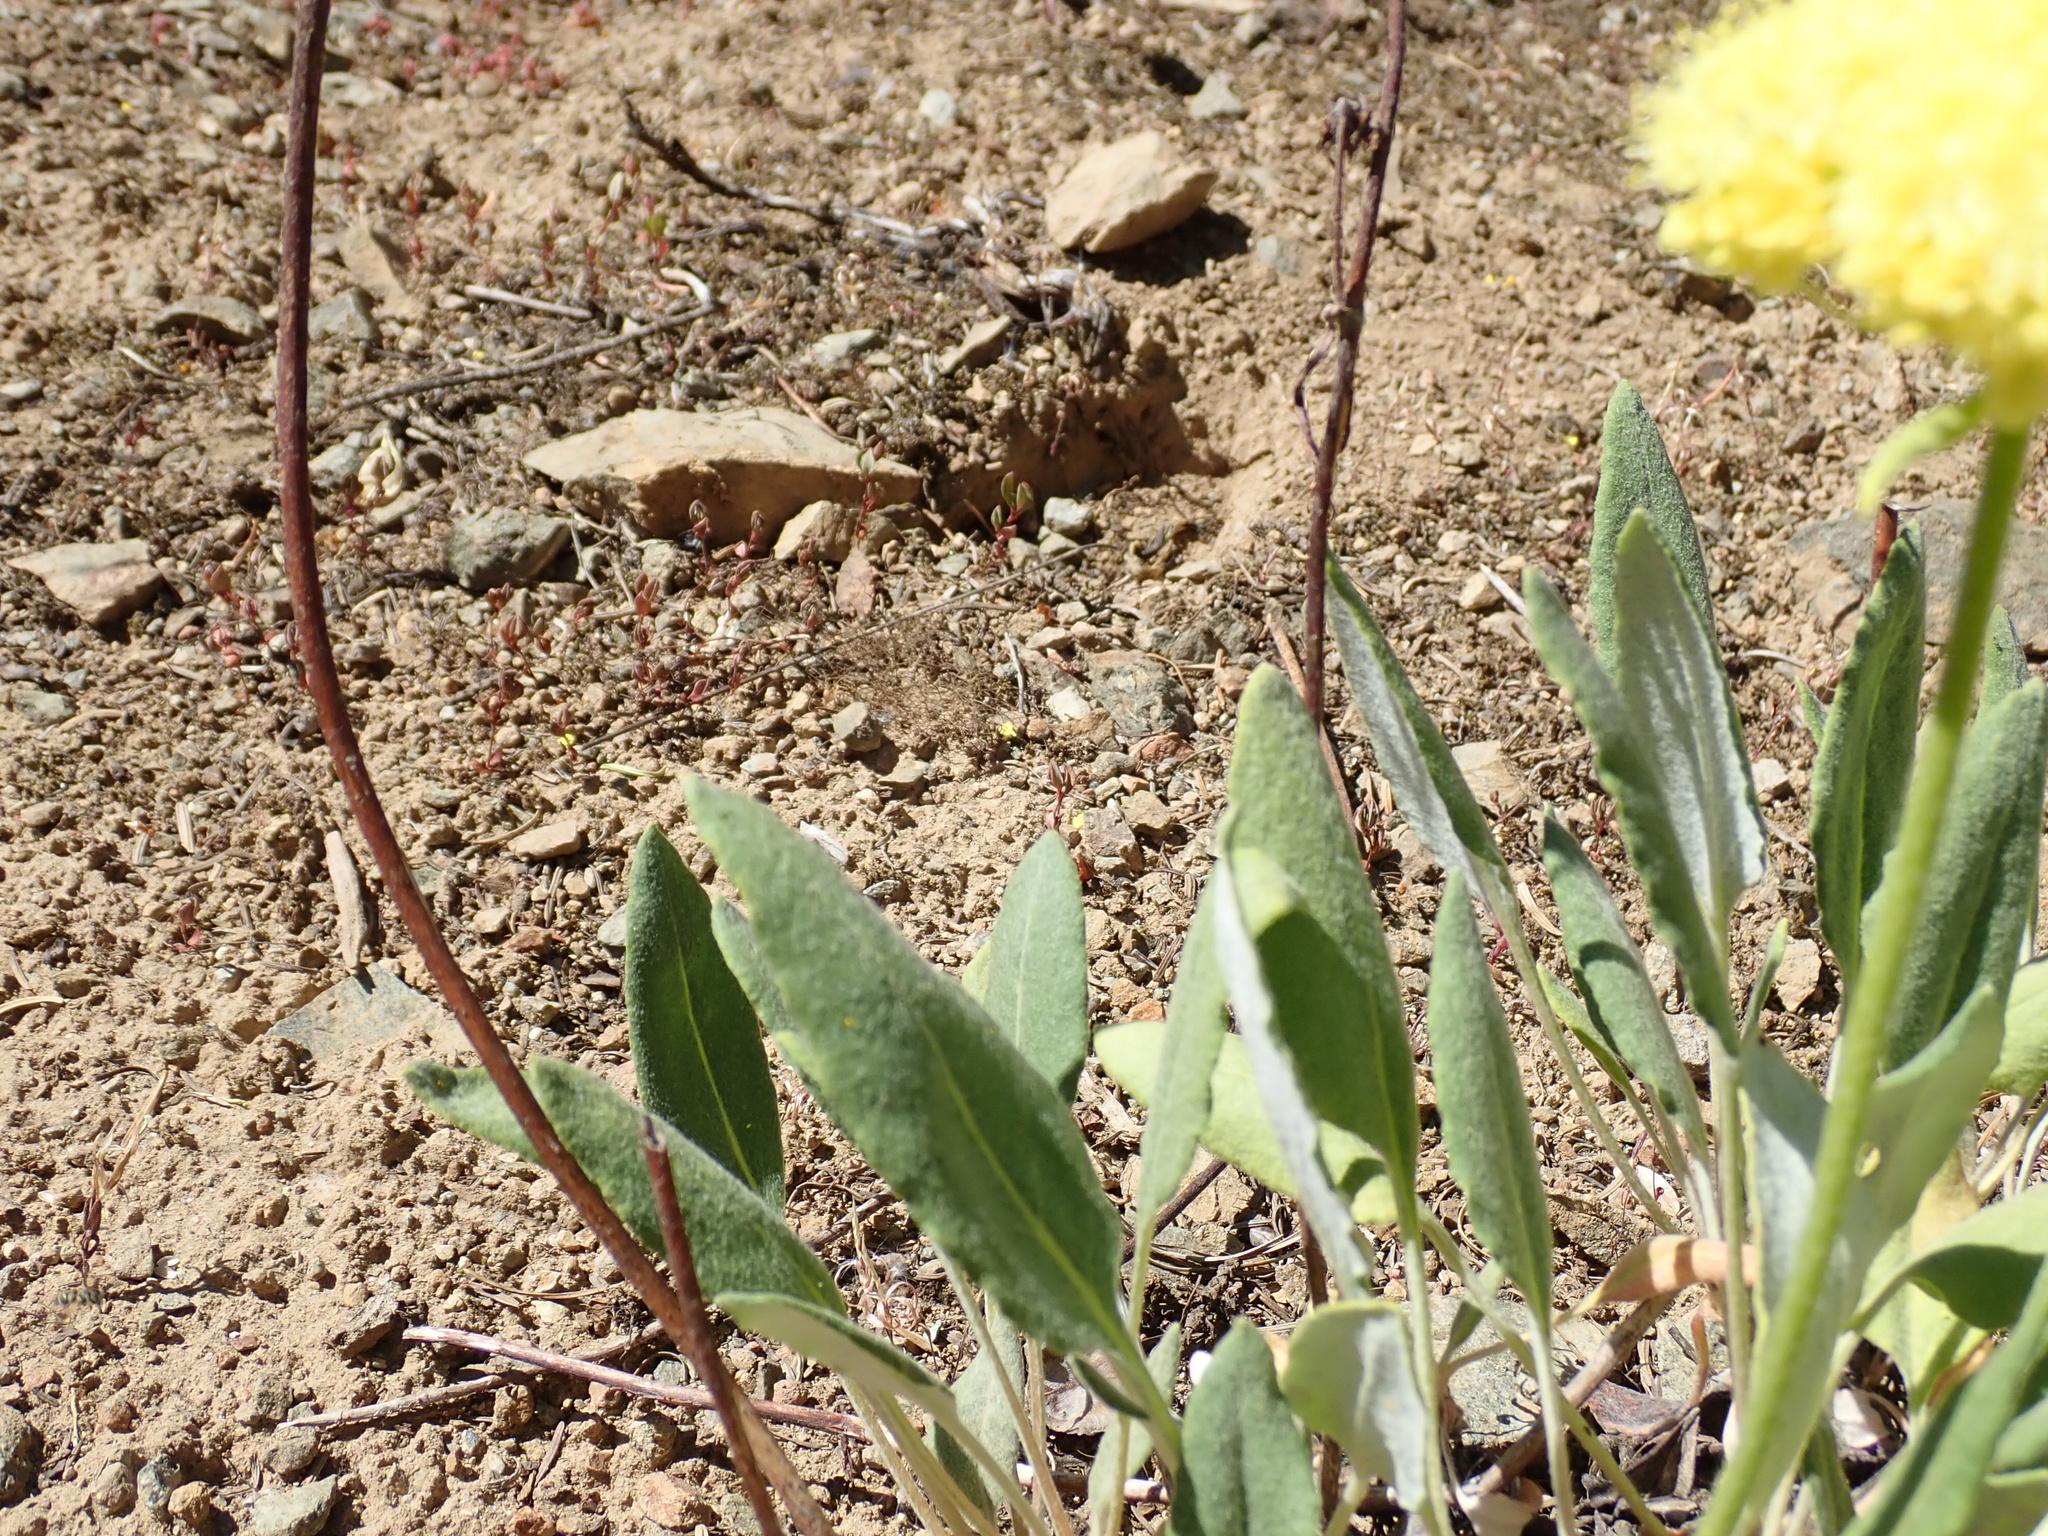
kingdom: Plantae
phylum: Tracheophyta
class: Magnoliopsida
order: Caryophyllales
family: Polygonaceae
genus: Eriogonum
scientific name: Eriogonum compositum
